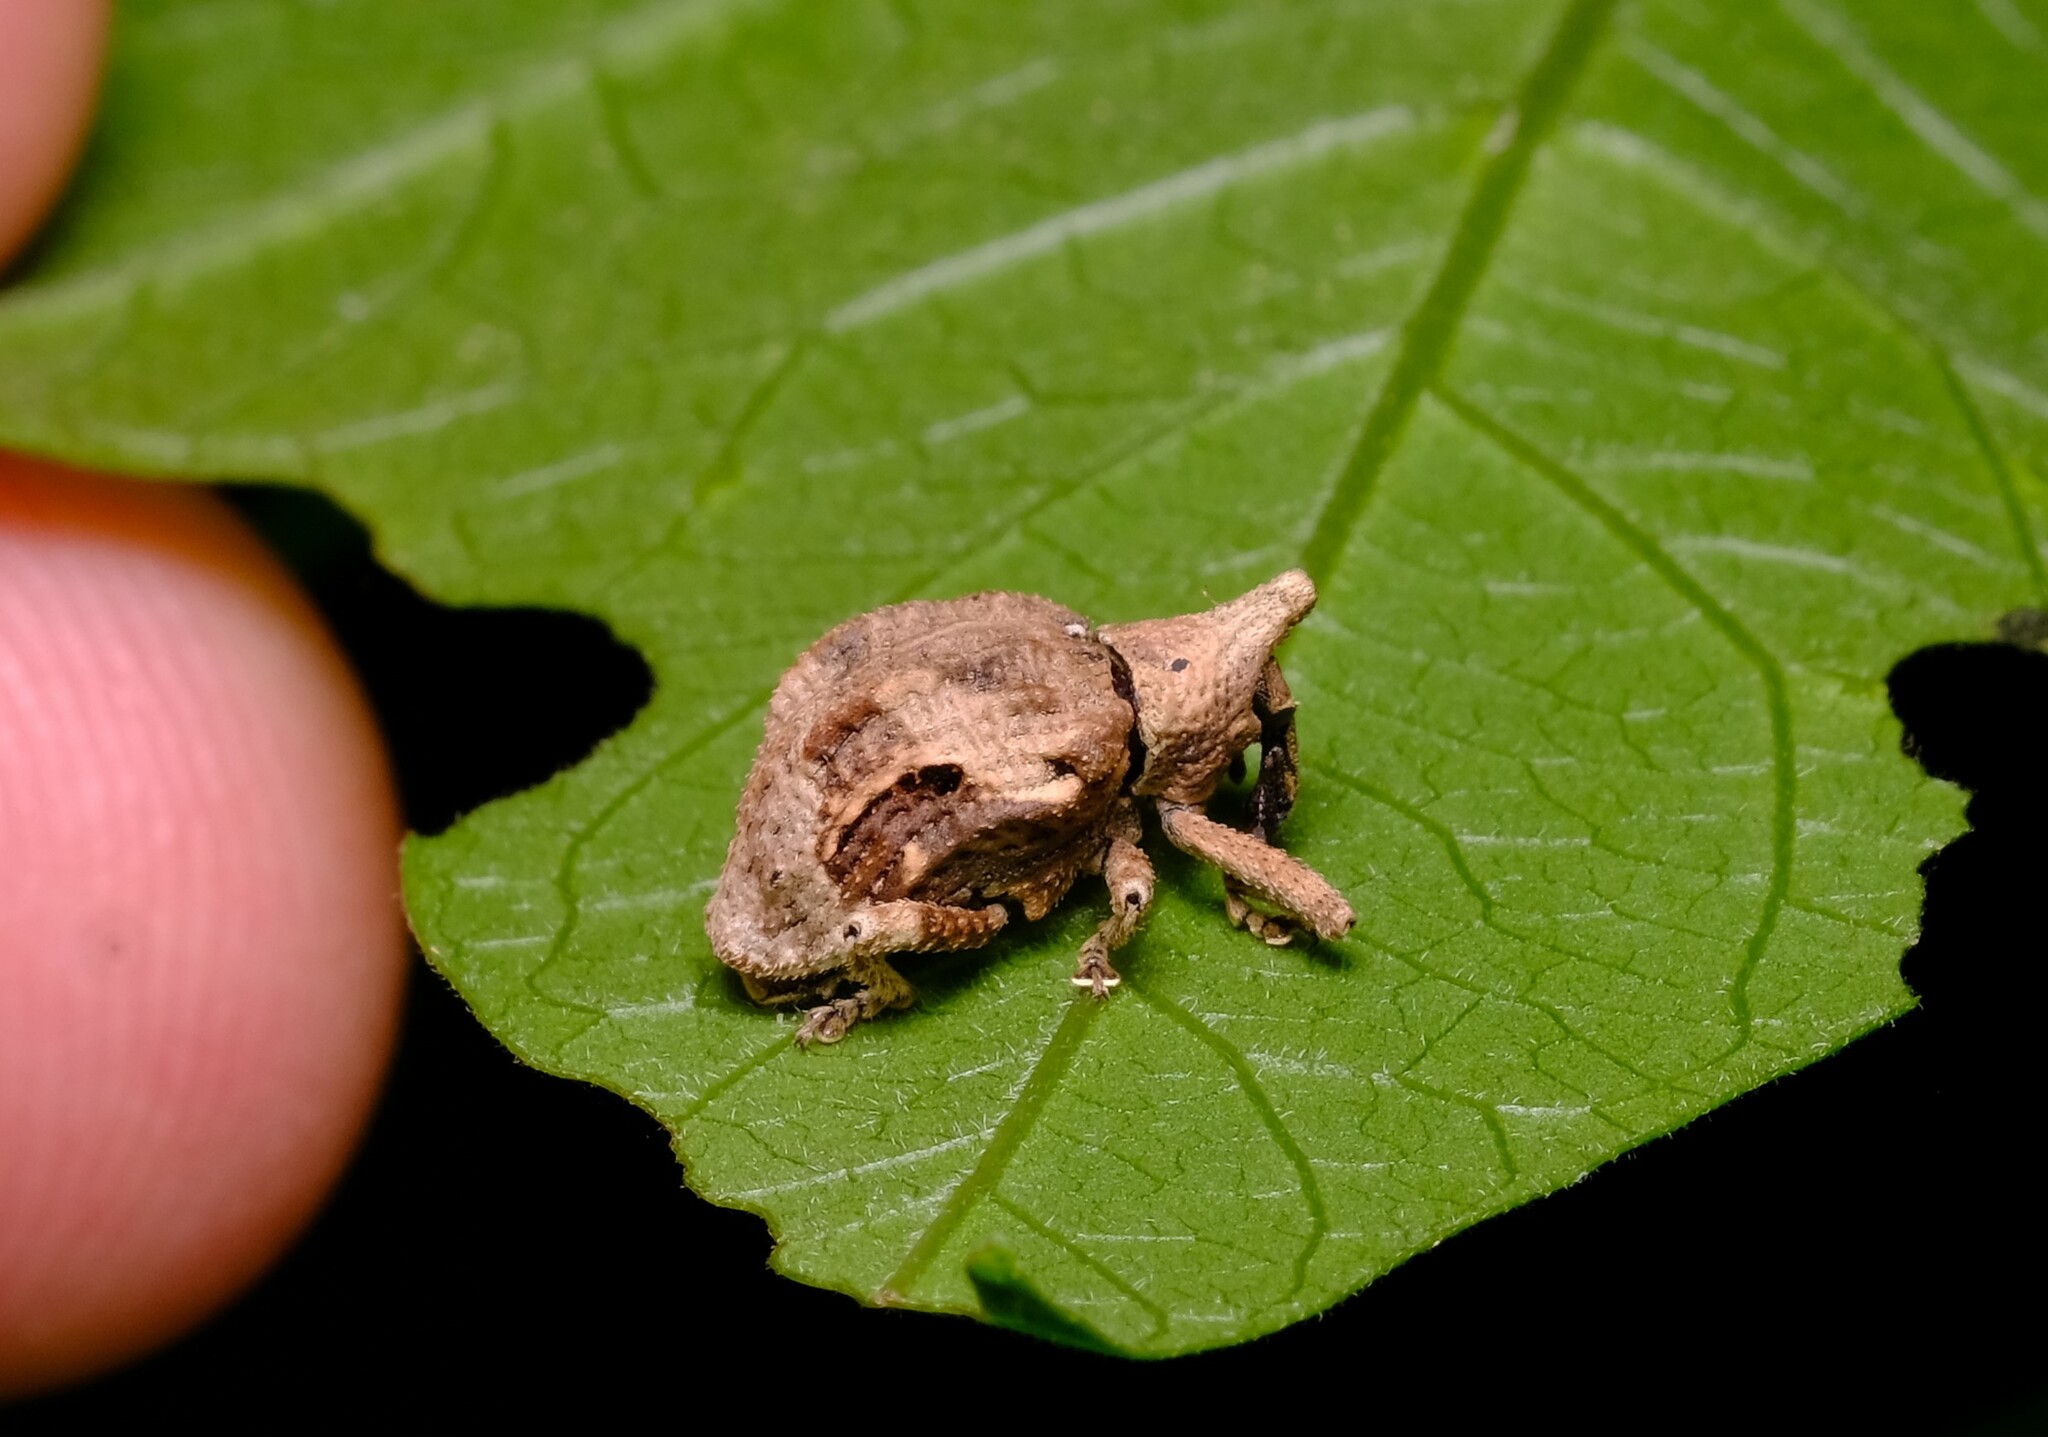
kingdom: Animalia
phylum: Arthropoda
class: Insecta
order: Coleoptera
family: Curculionidae
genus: Oemethylus
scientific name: Oemethylus
